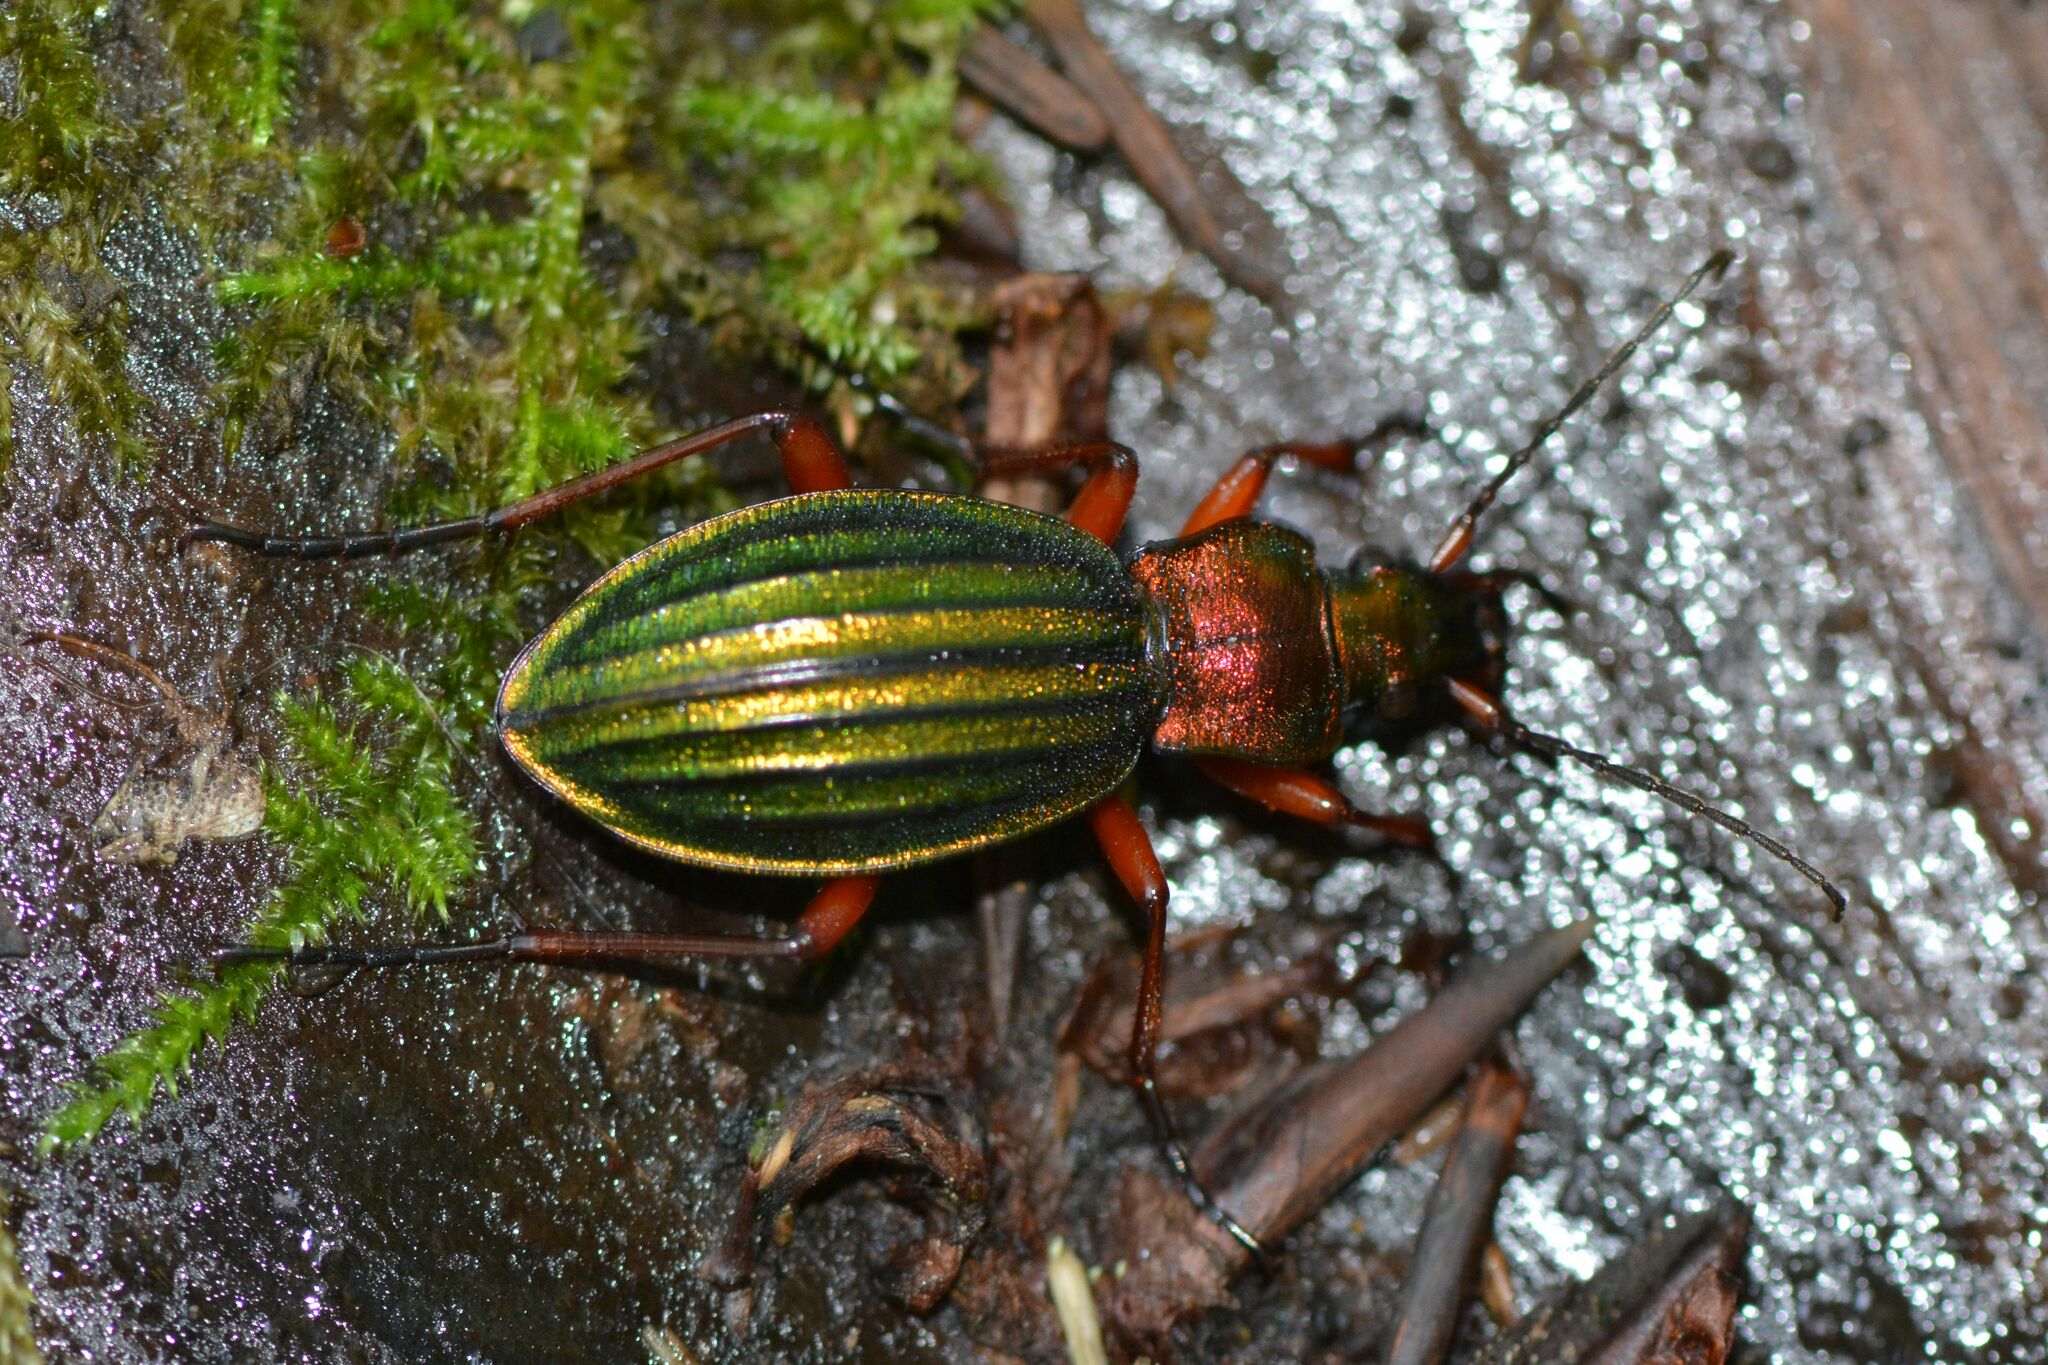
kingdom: Animalia
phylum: Arthropoda
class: Insecta
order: Coleoptera
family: Carabidae
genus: Carabus
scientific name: Carabus auronitens
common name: Carabus auronitens
